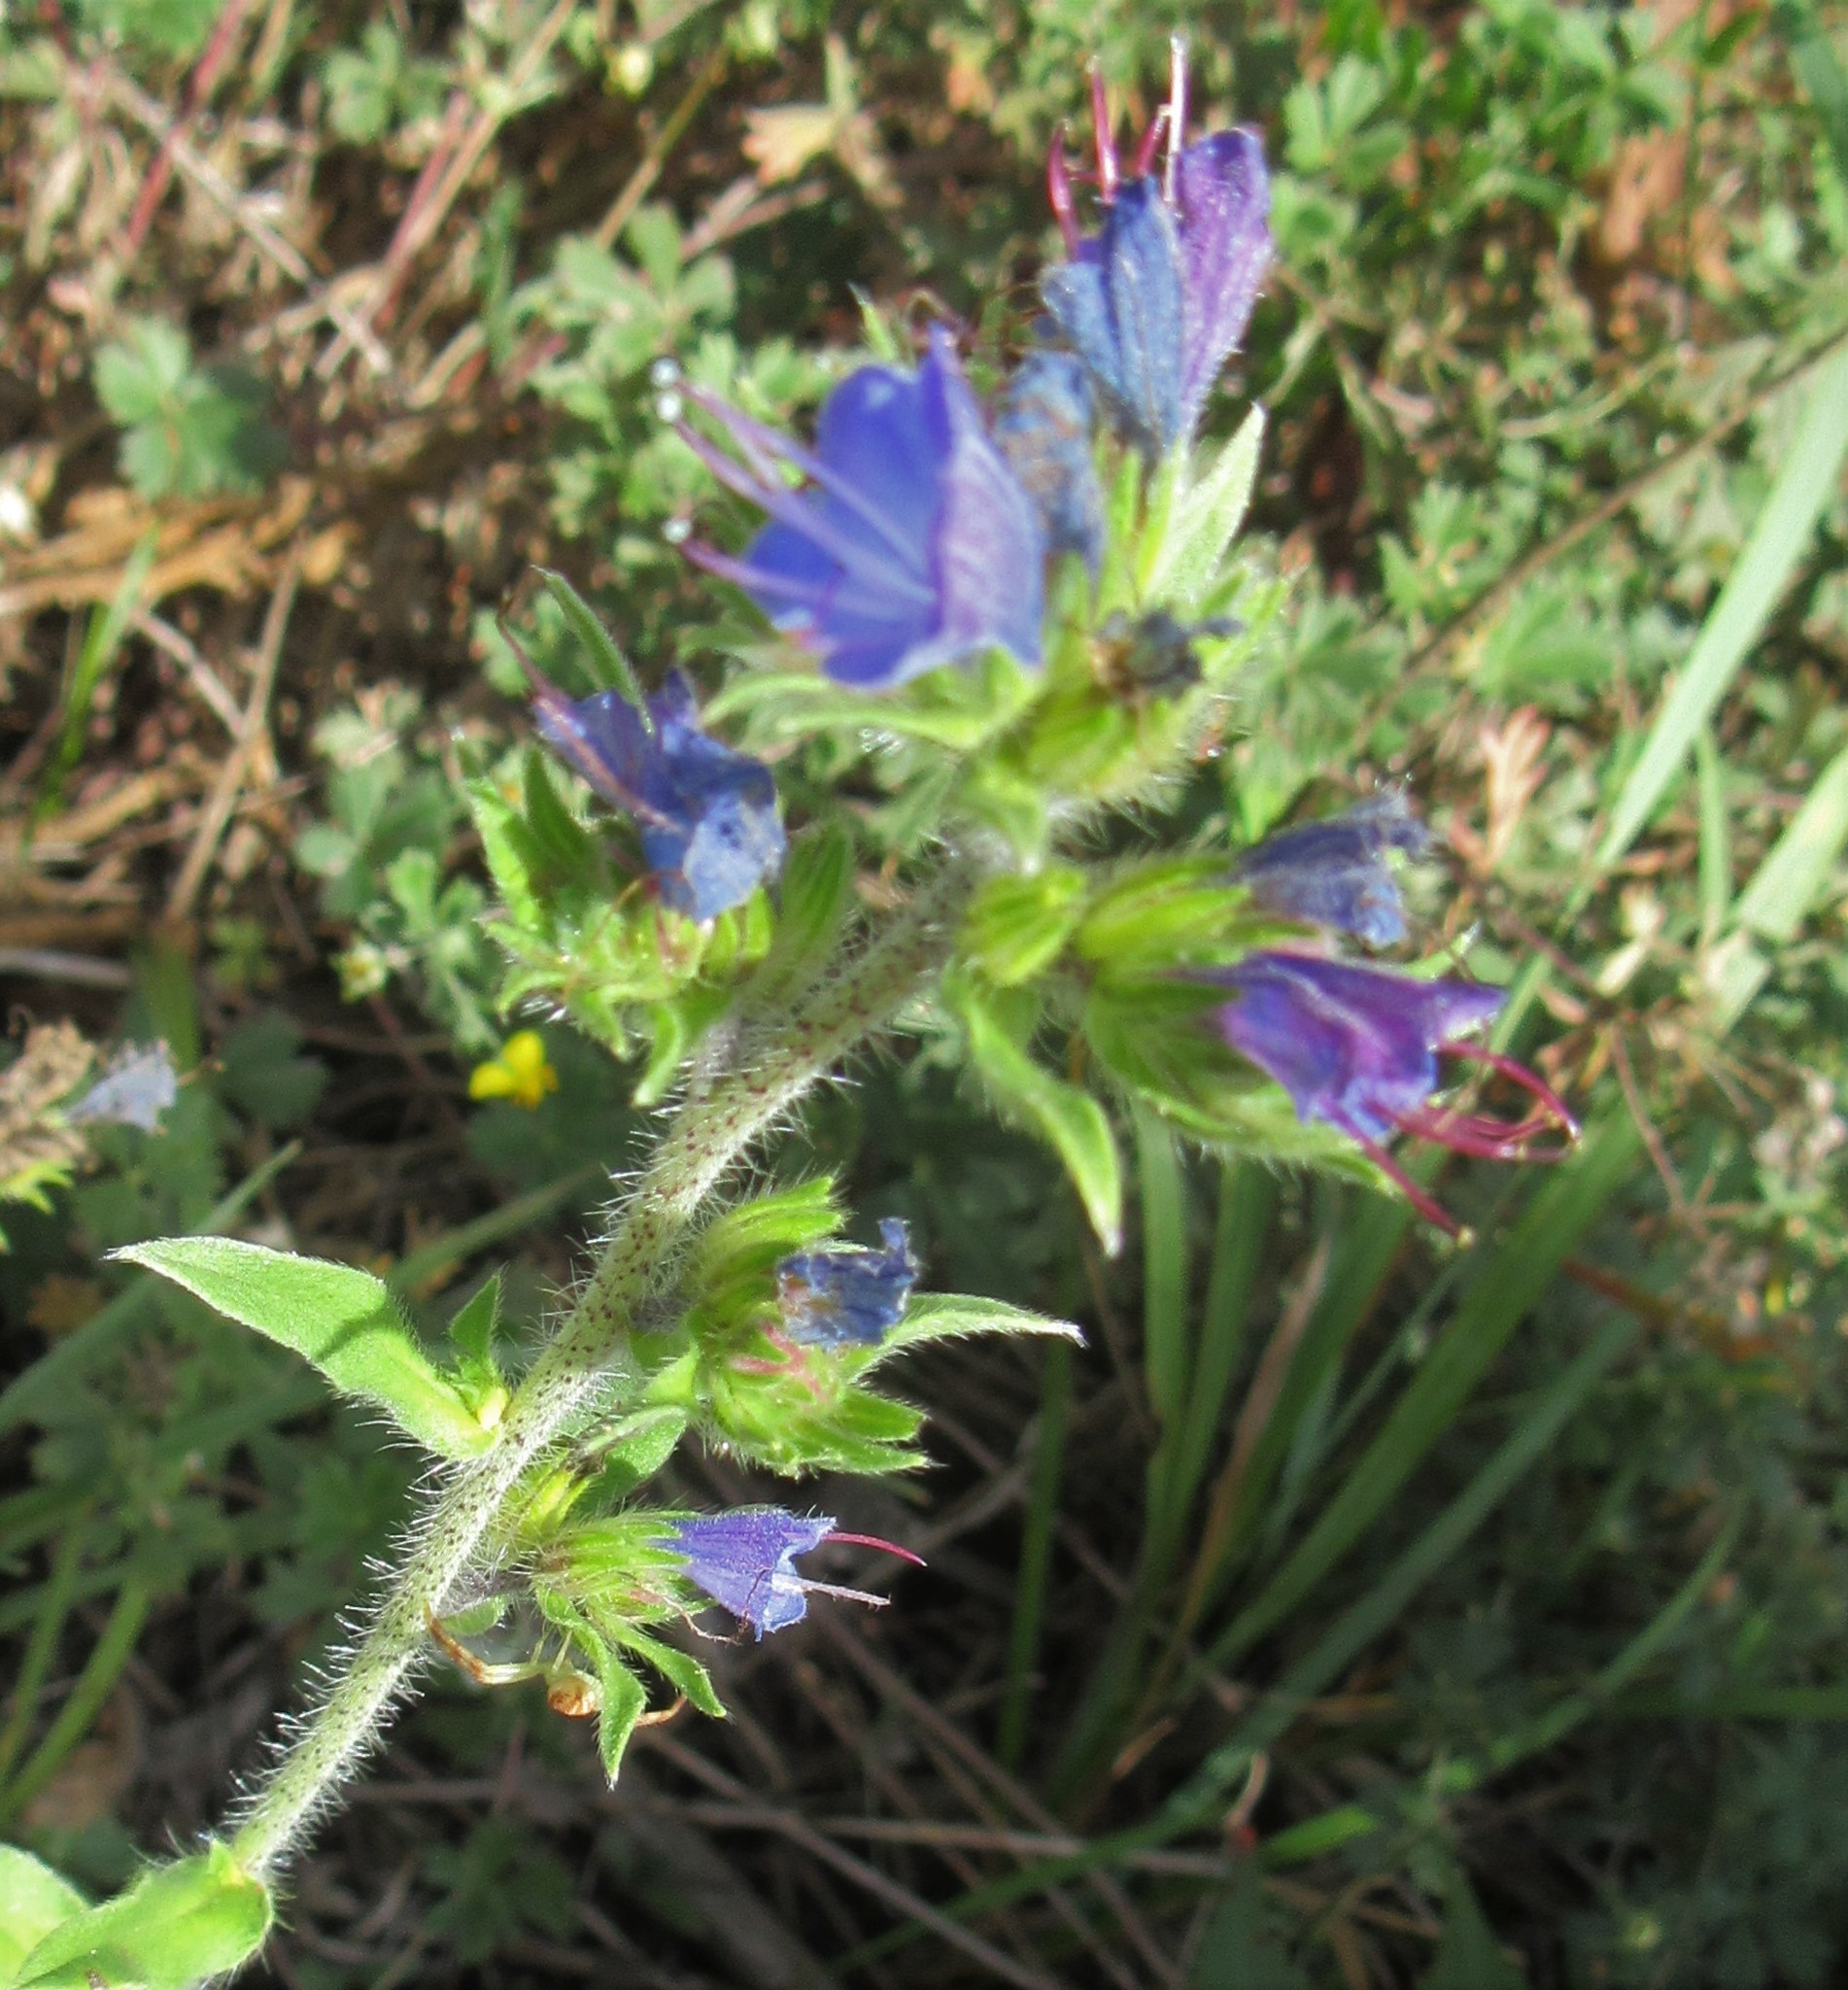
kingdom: Plantae
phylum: Tracheophyta
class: Magnoliopsida
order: Boraginales
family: Boraginaceae
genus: Echium
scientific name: Echium vulgare
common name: Common viper's bugloss
